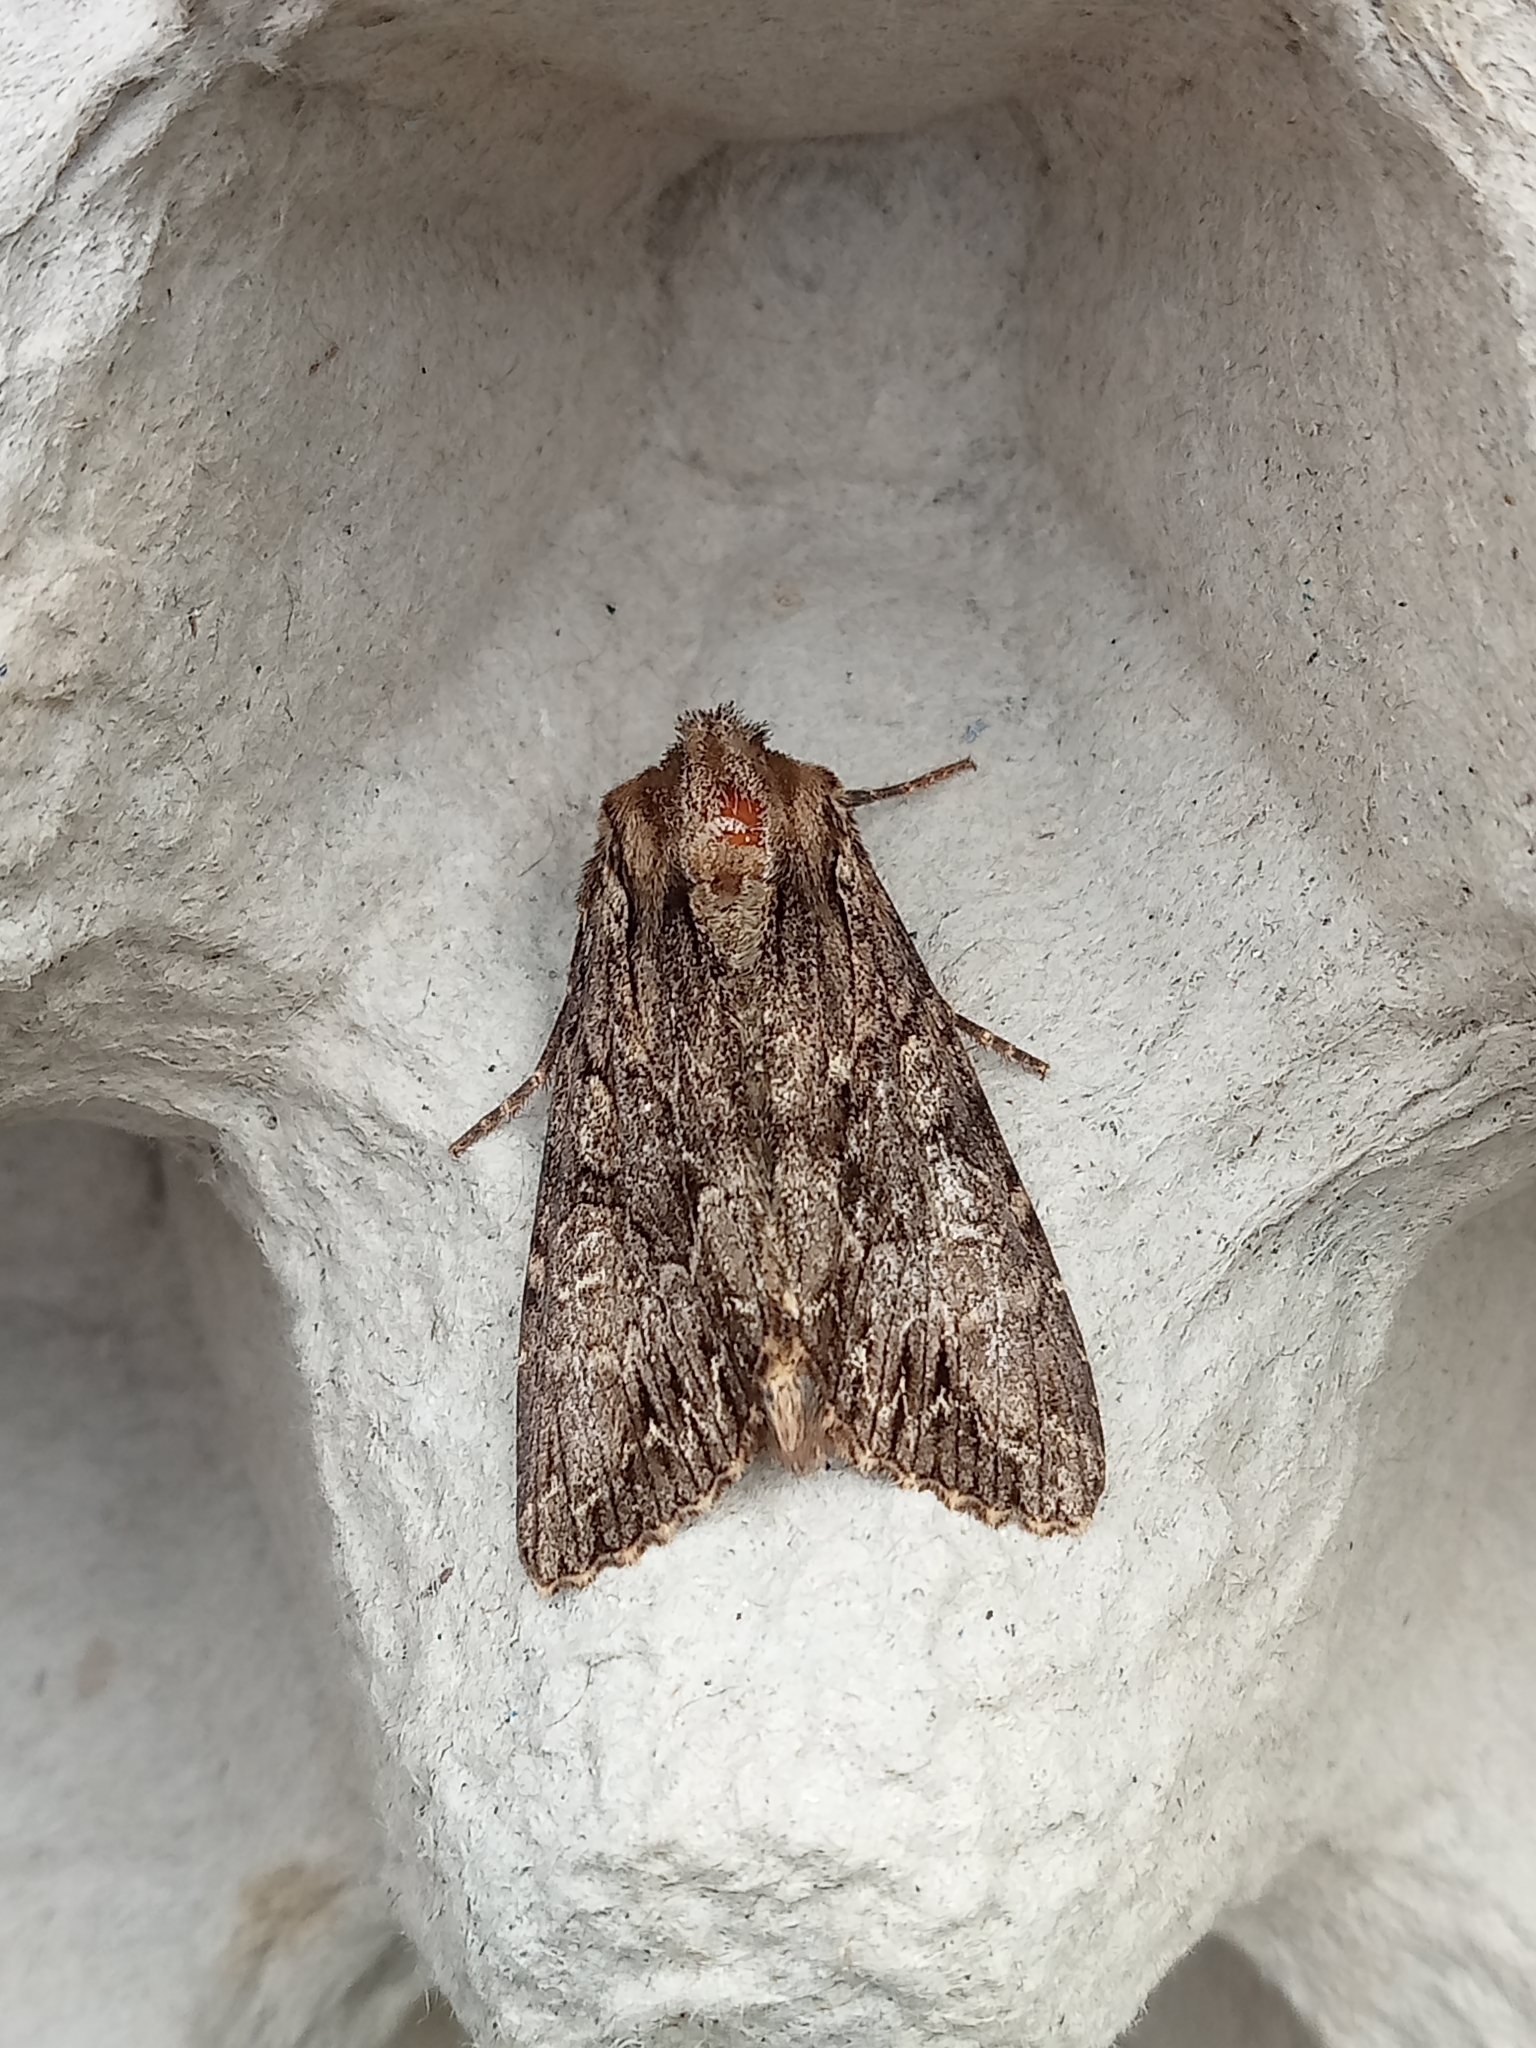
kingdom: Animalia
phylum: Arthropoda
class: Insecta
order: Lepidoptera
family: Noctuidae
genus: Apamea
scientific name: Apamea monoglypha
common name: Dark arches
